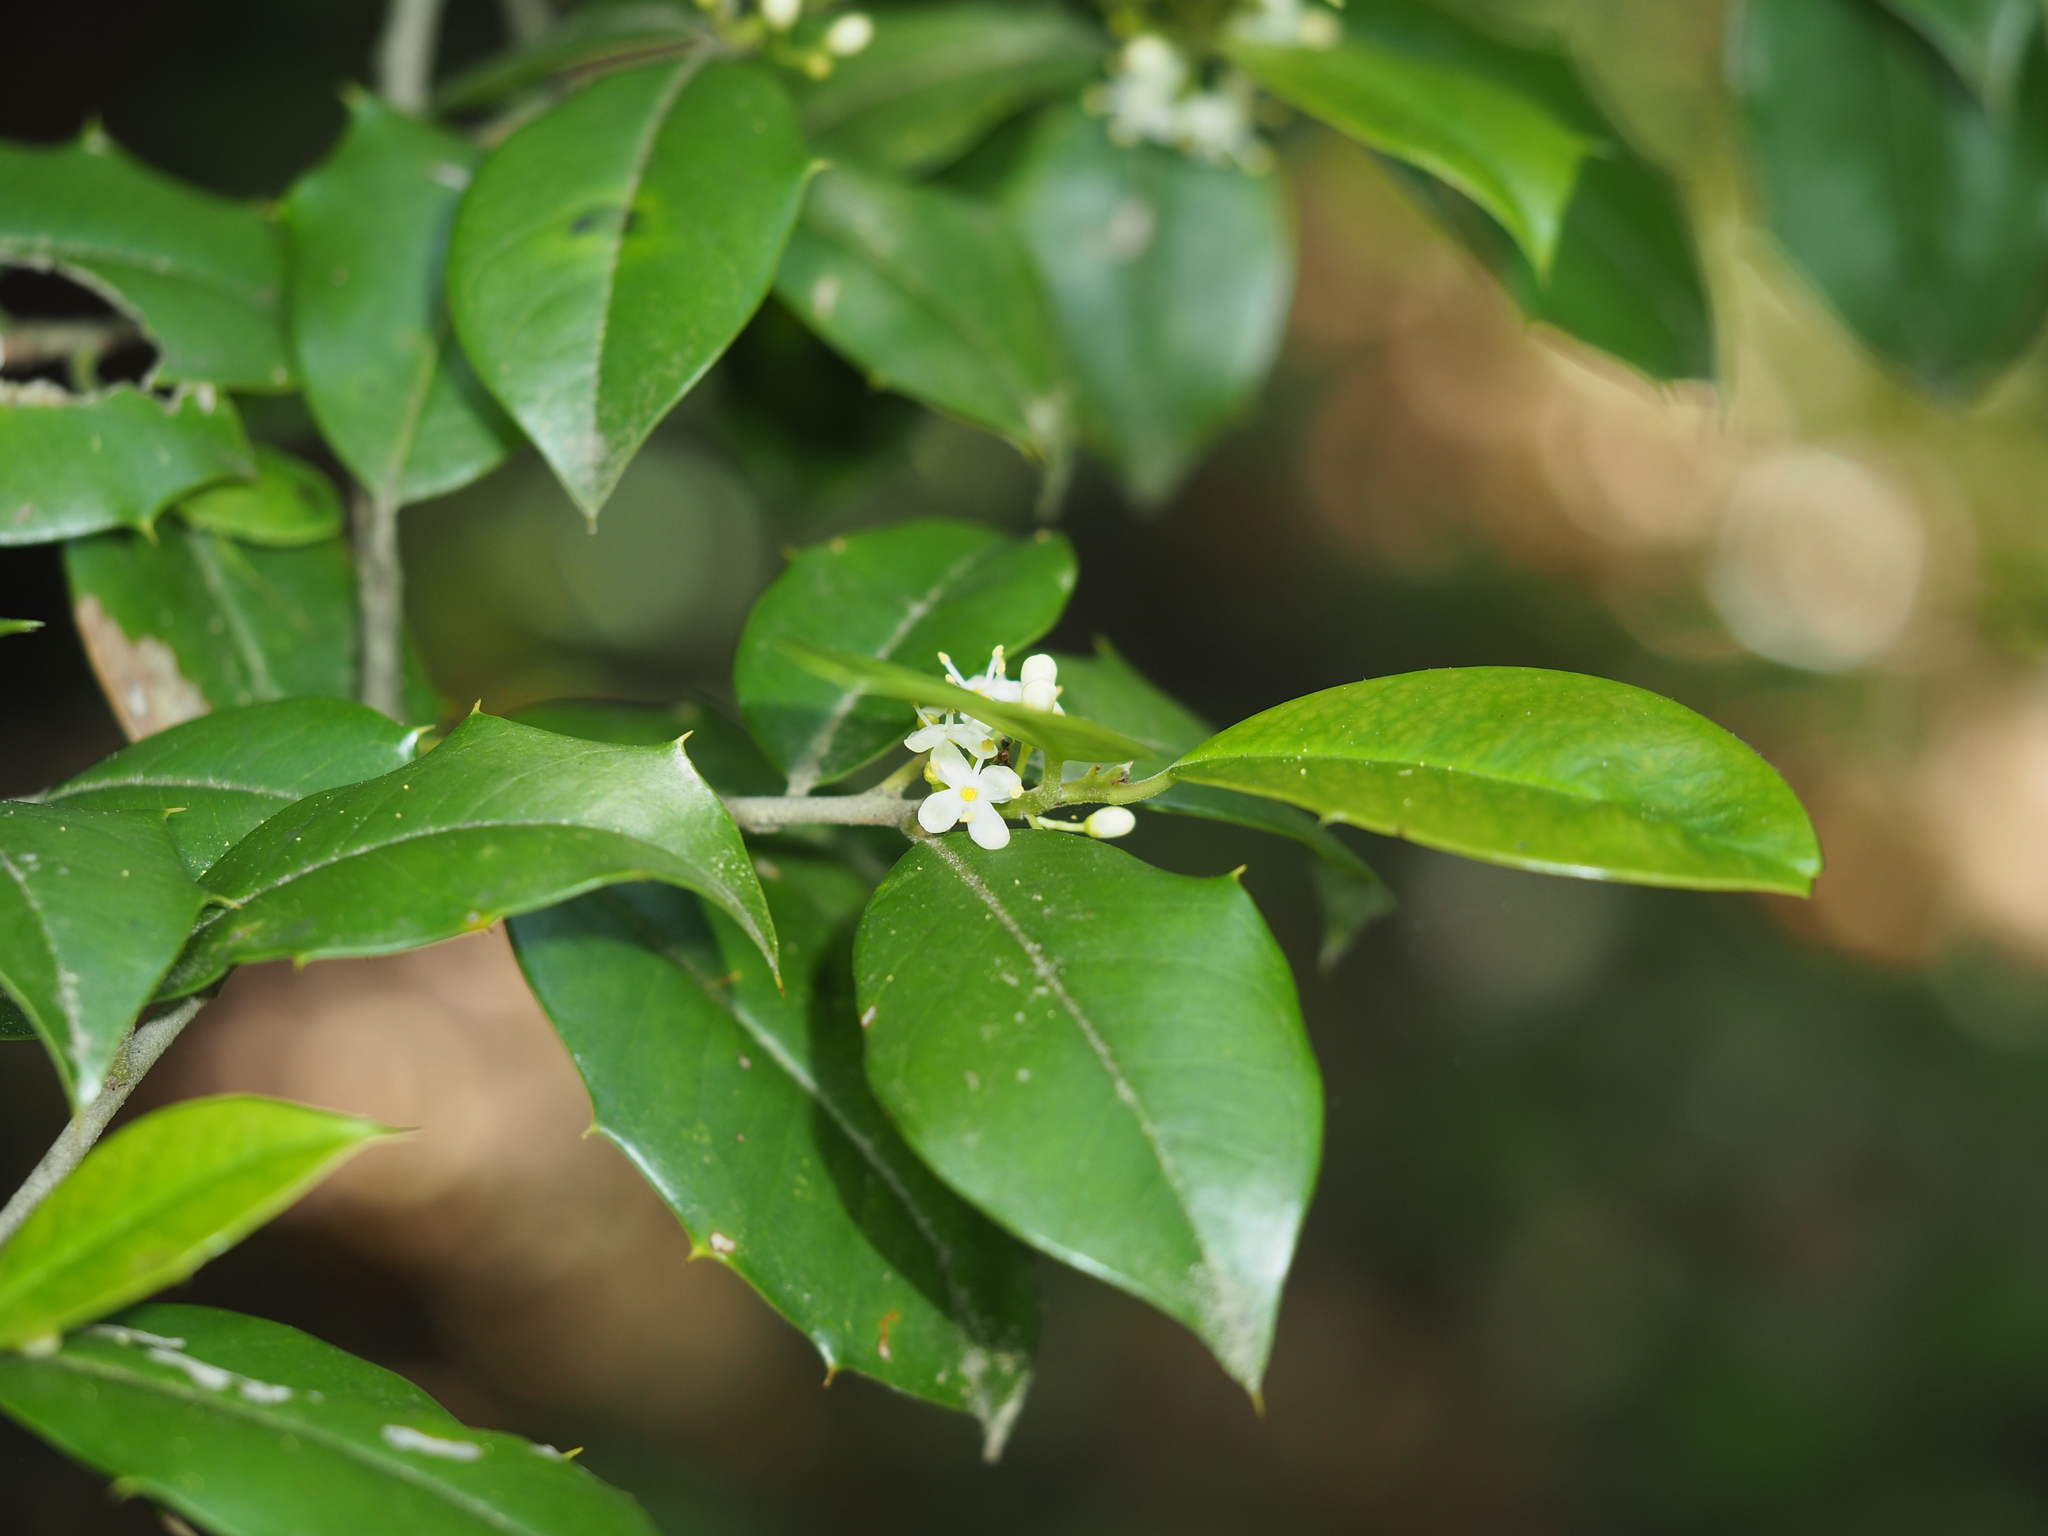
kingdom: Plantae
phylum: Tracheophyta
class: Magnoliopsida
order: Aquifoliales
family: Aquifoliaceae
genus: Ilex
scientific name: Ilex opaca
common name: American holly
